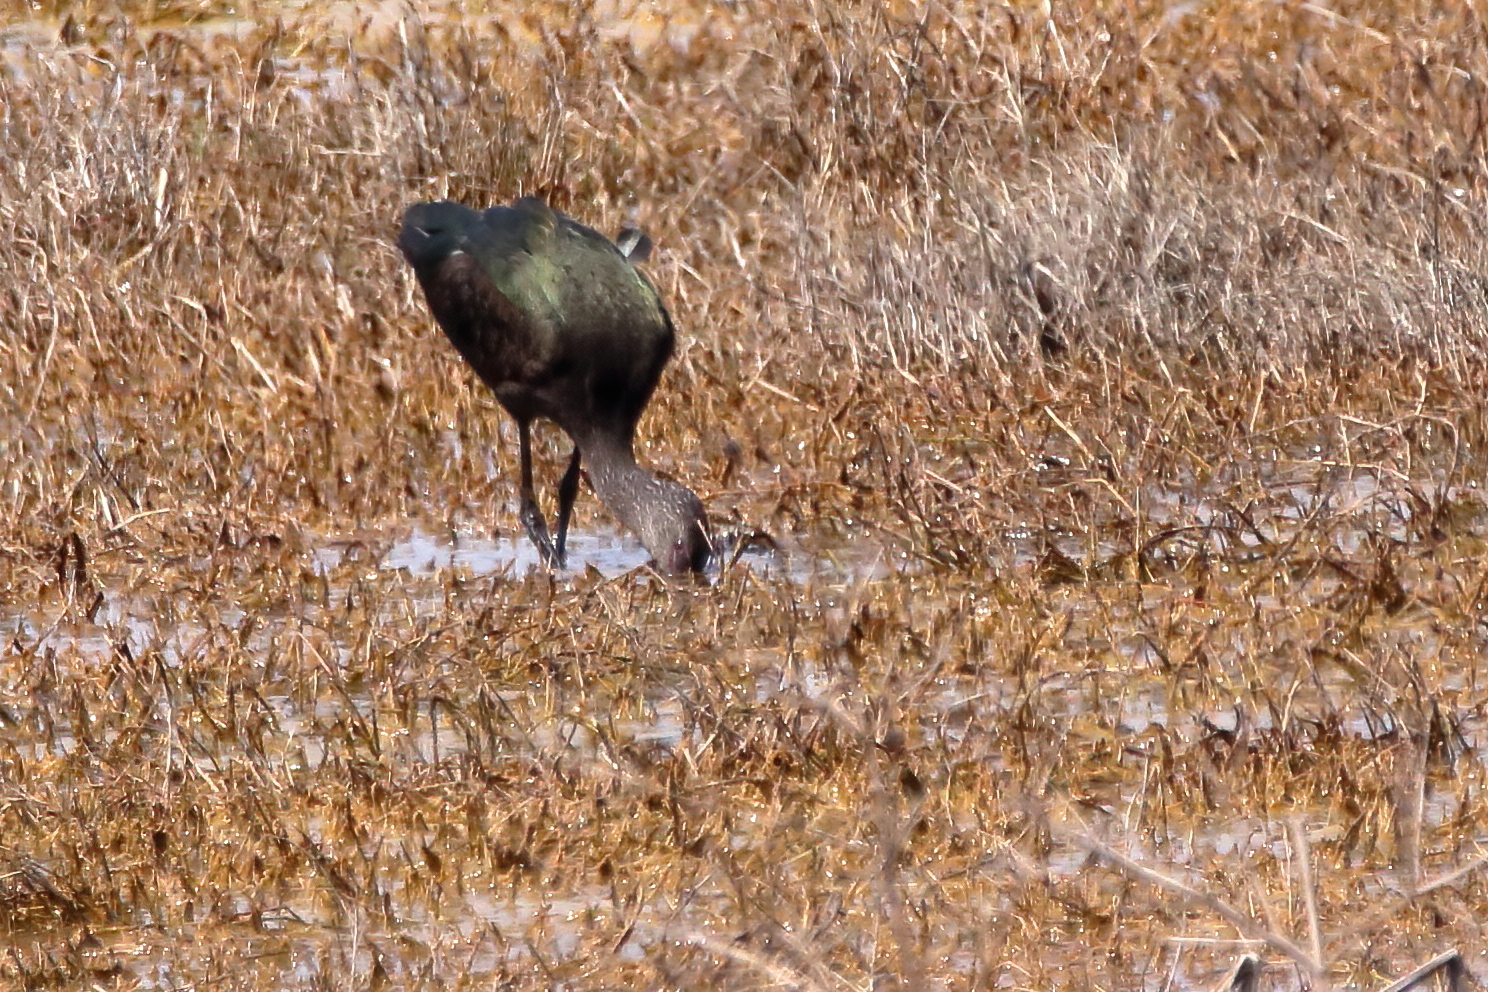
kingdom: Animalia
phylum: Chordata
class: Aves
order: Pelecaniformes
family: Threskiornithidae
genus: Plegadis
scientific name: Plegadis chihi
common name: White-faced ibis
